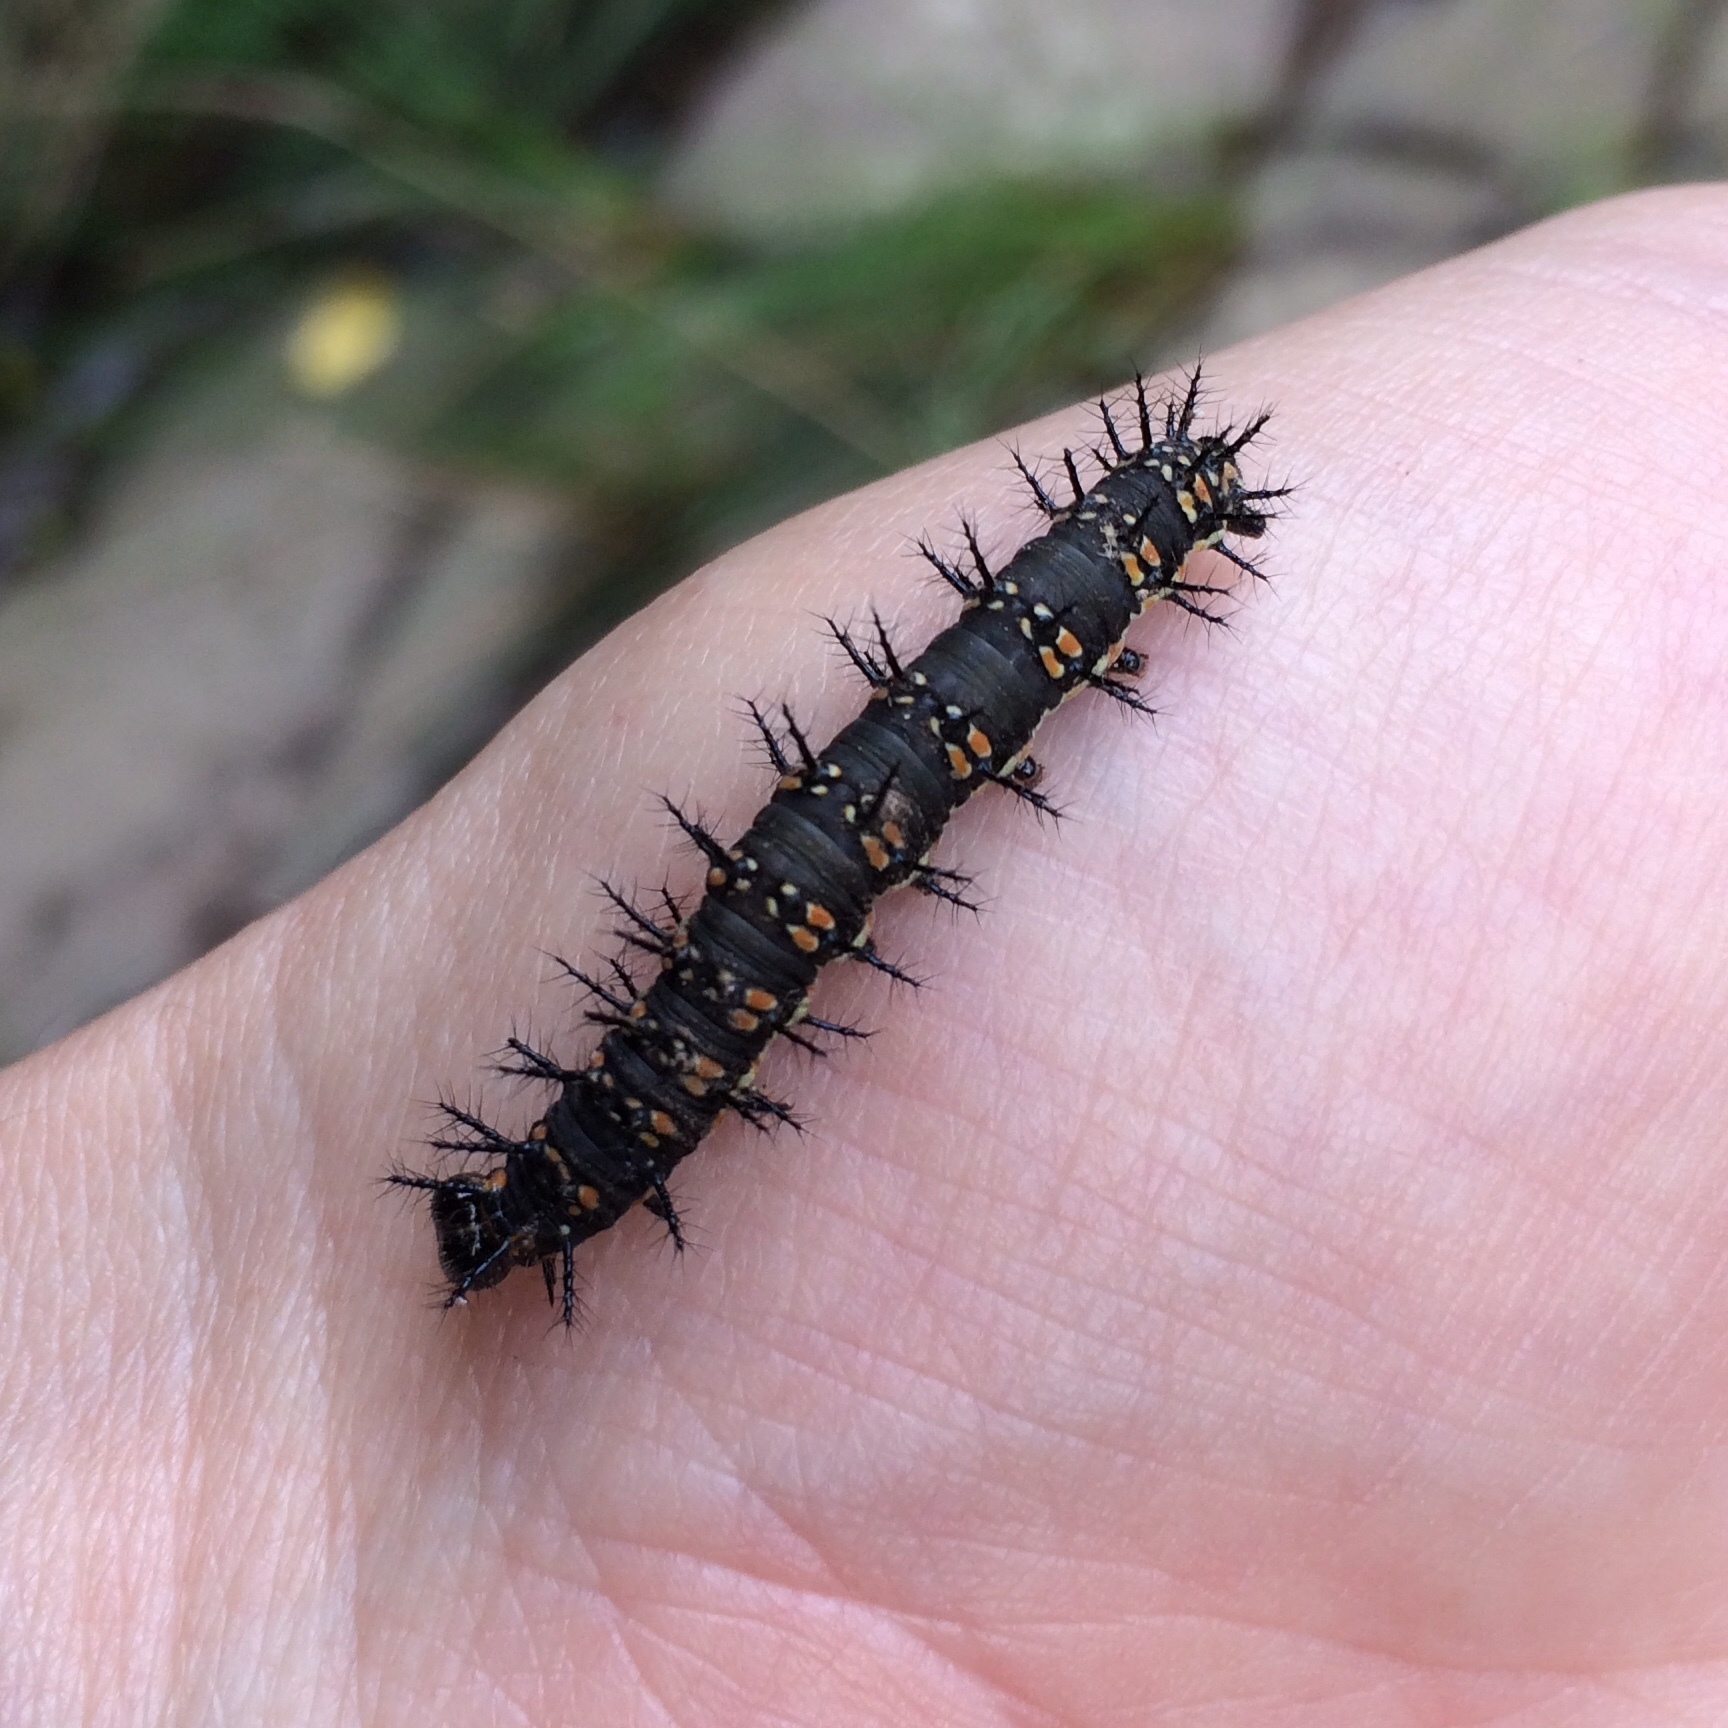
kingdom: Animalia
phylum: Arthropoda
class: Insecta
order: Lepidoptera
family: Nymphalidae
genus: Acraea
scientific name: Acraea Telchinia encedon
